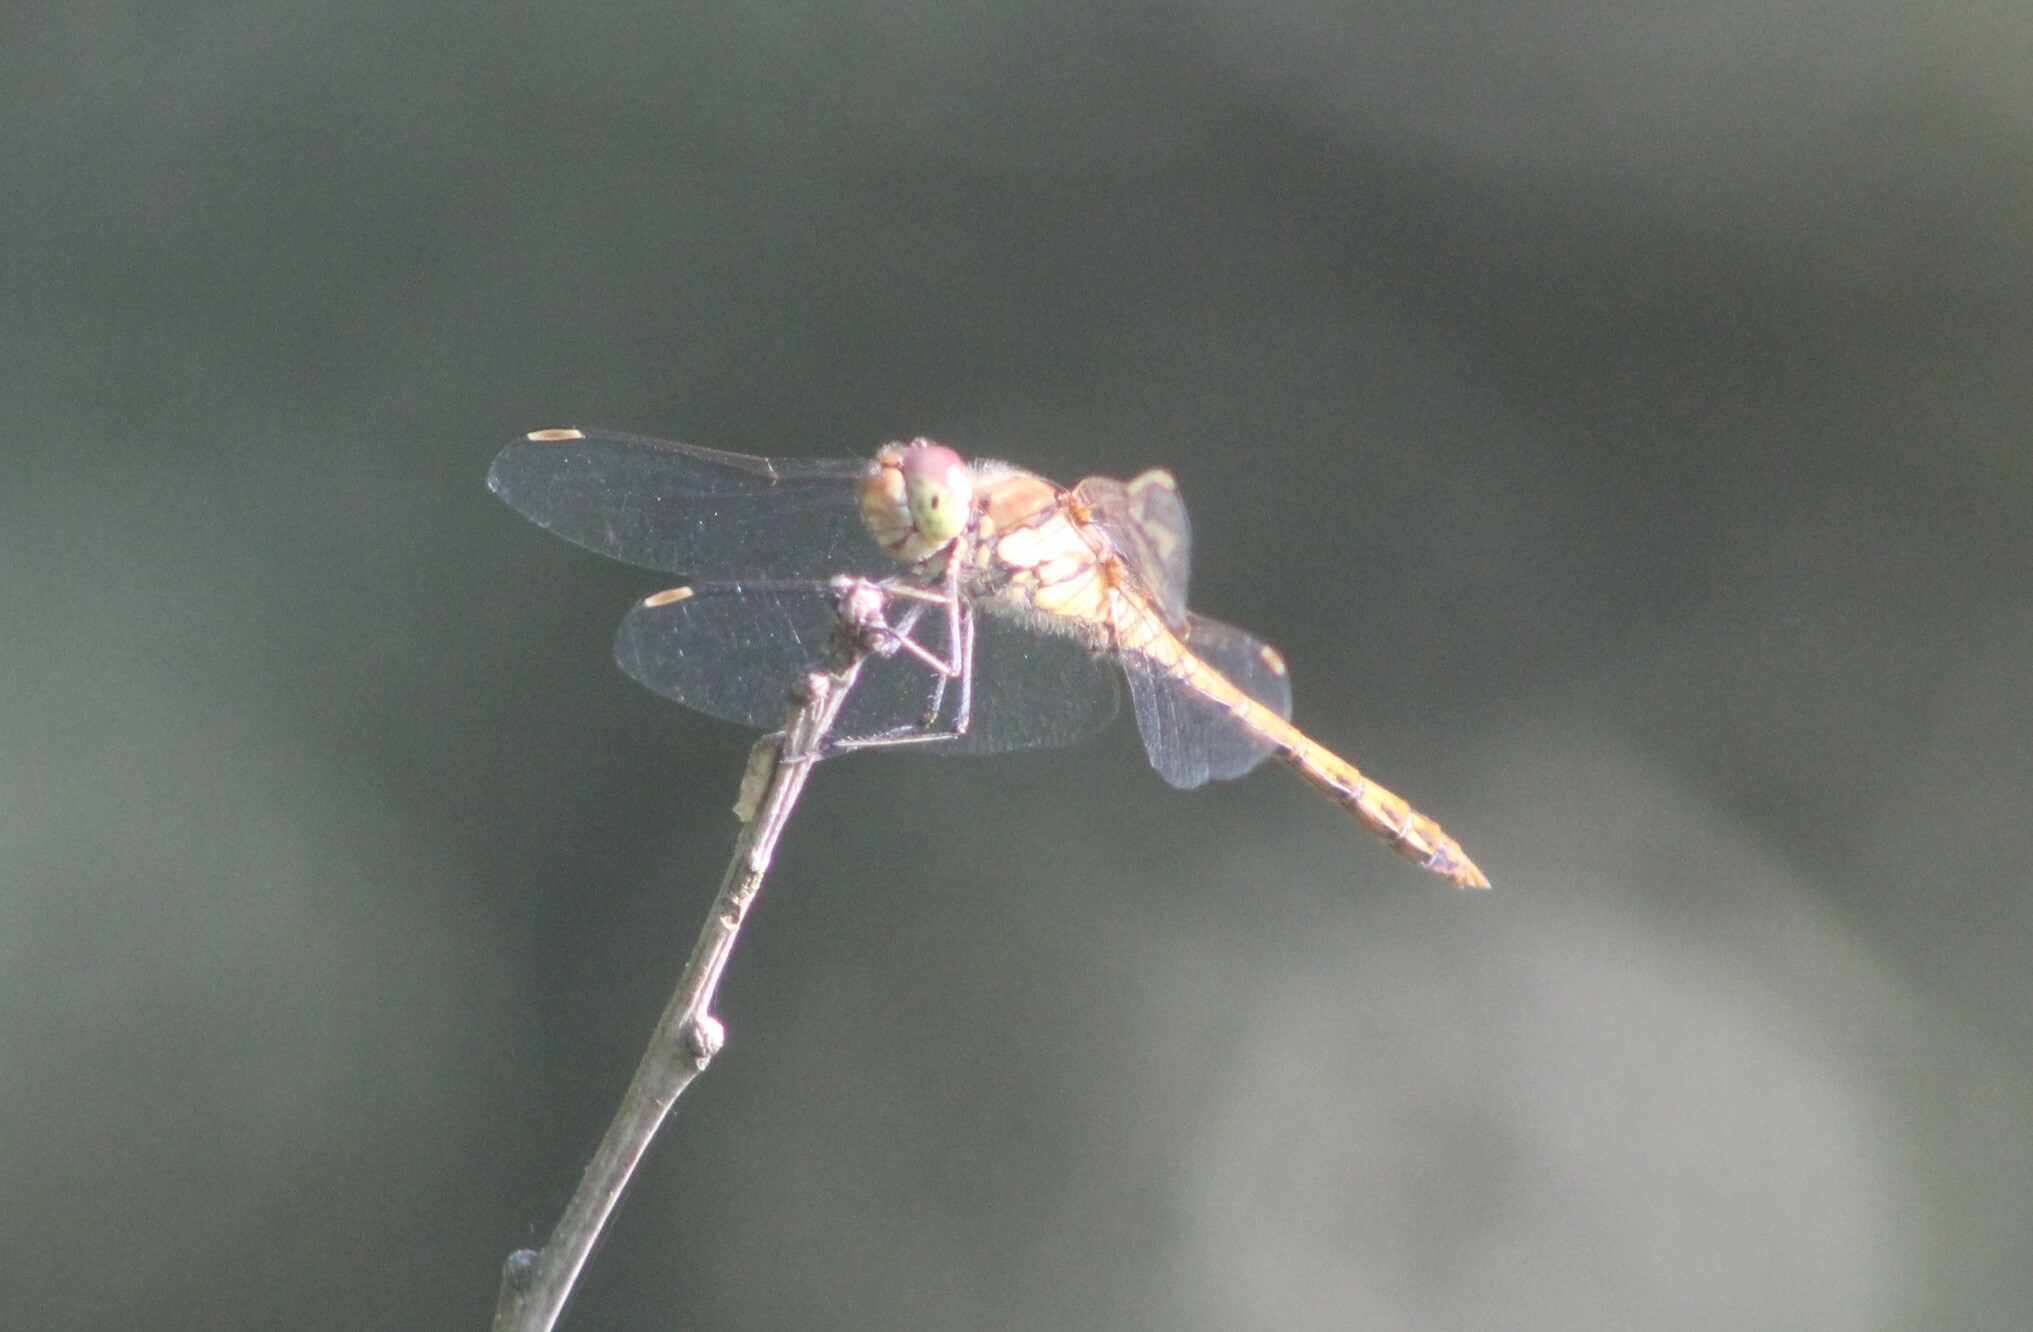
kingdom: Animalia
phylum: Arthropoda
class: Insecta
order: Odonata
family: Libellulidae
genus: Sympetrum
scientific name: Sympetrum striolatum
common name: Common darter
